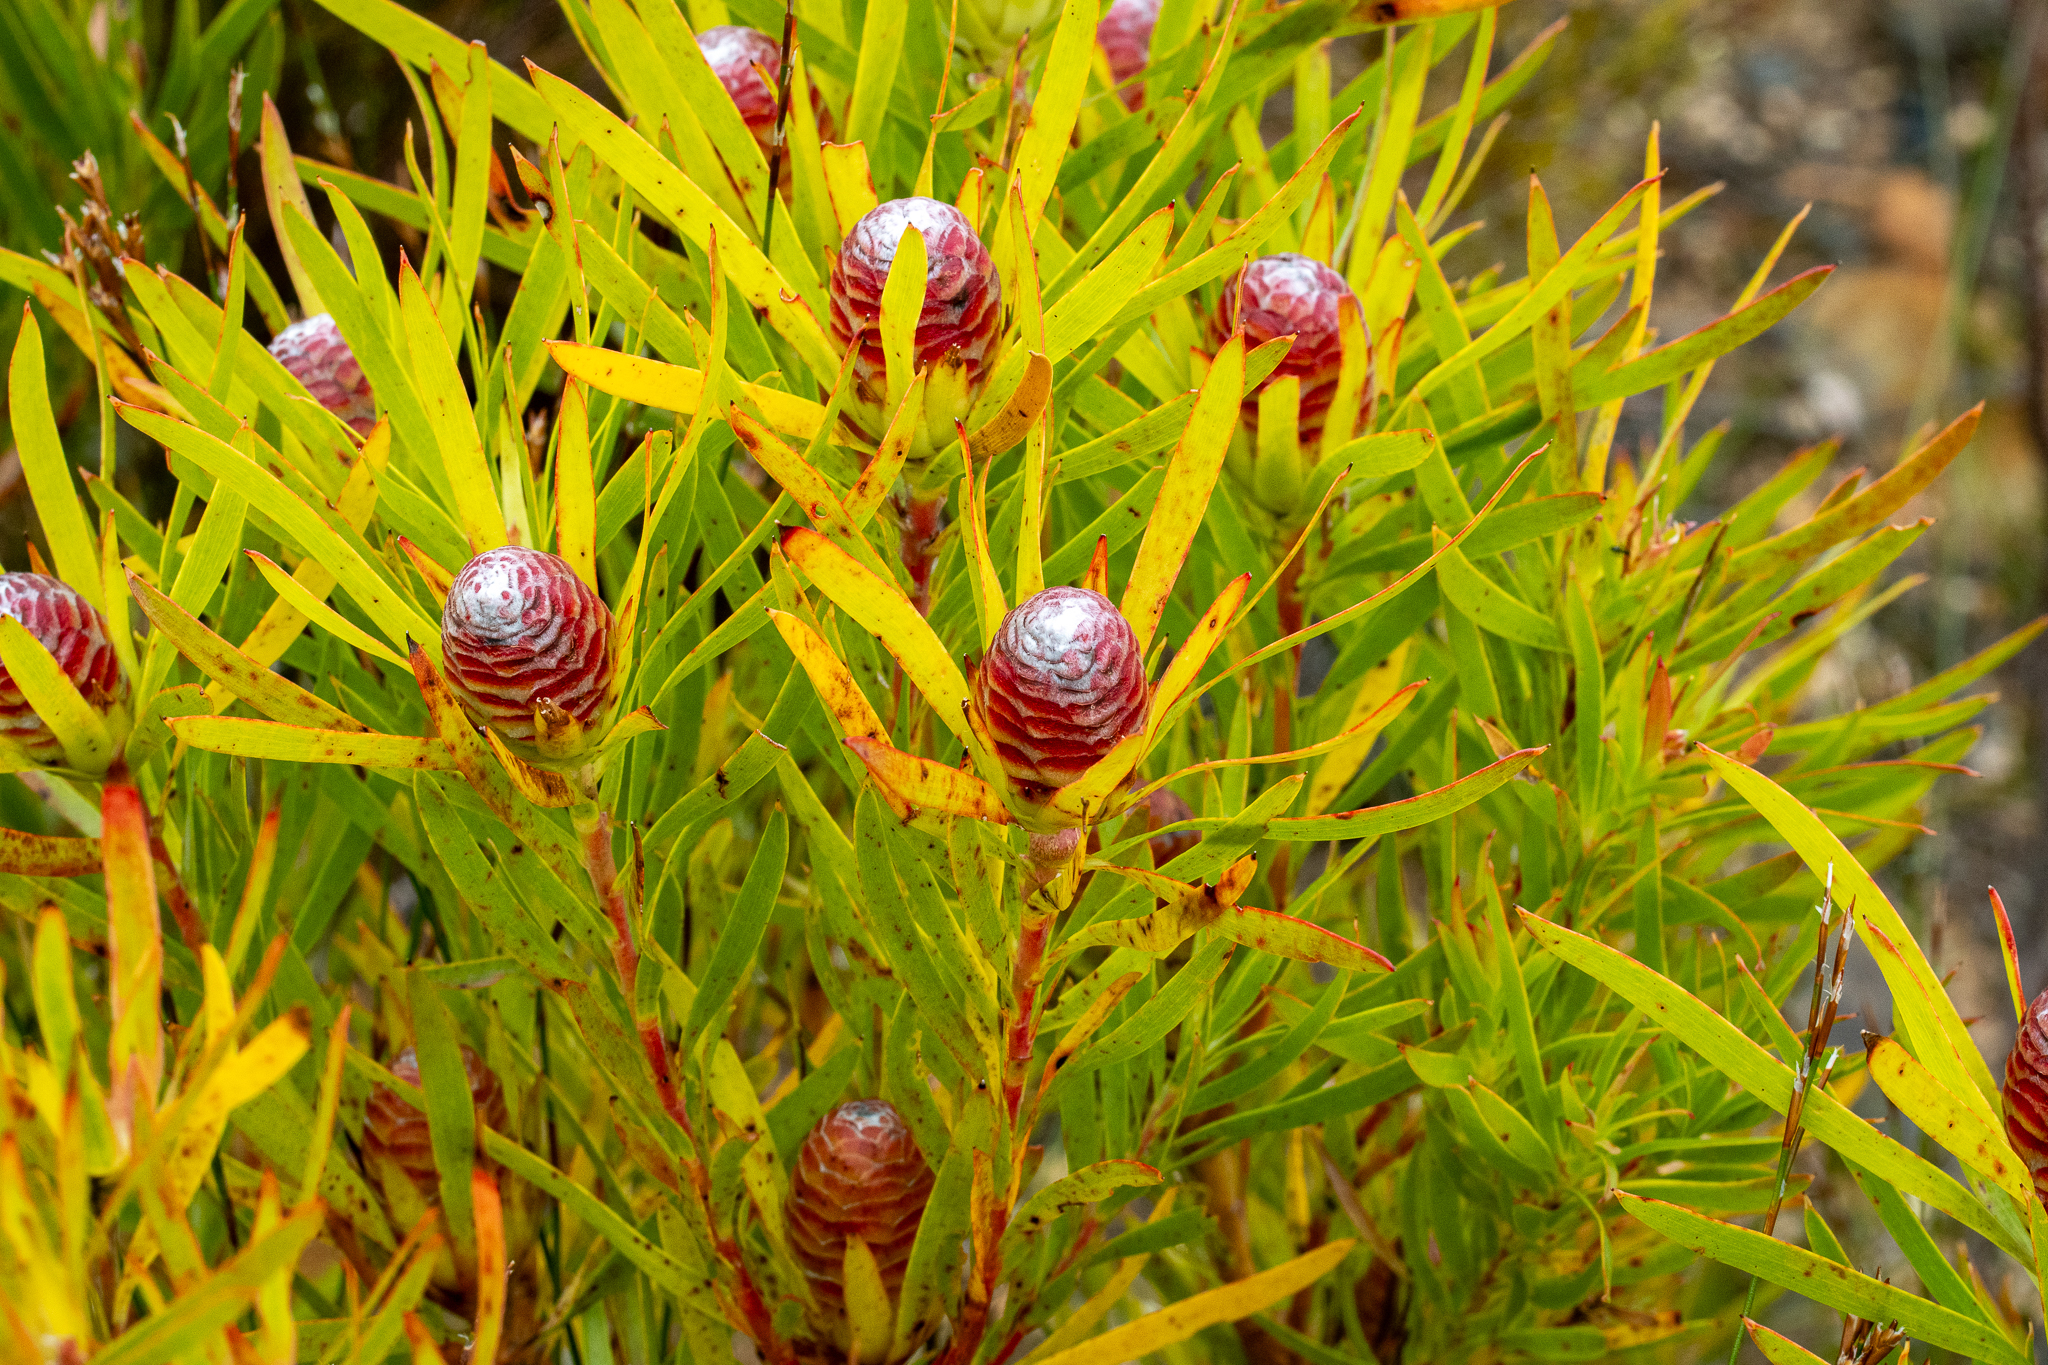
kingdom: Plantae
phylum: Tracheophyta
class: Magnoliopsida
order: Proteales
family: Proteaceae
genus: Leucadendron
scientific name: Leucadendron xanthoconus
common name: Sickle-leaf conebush
